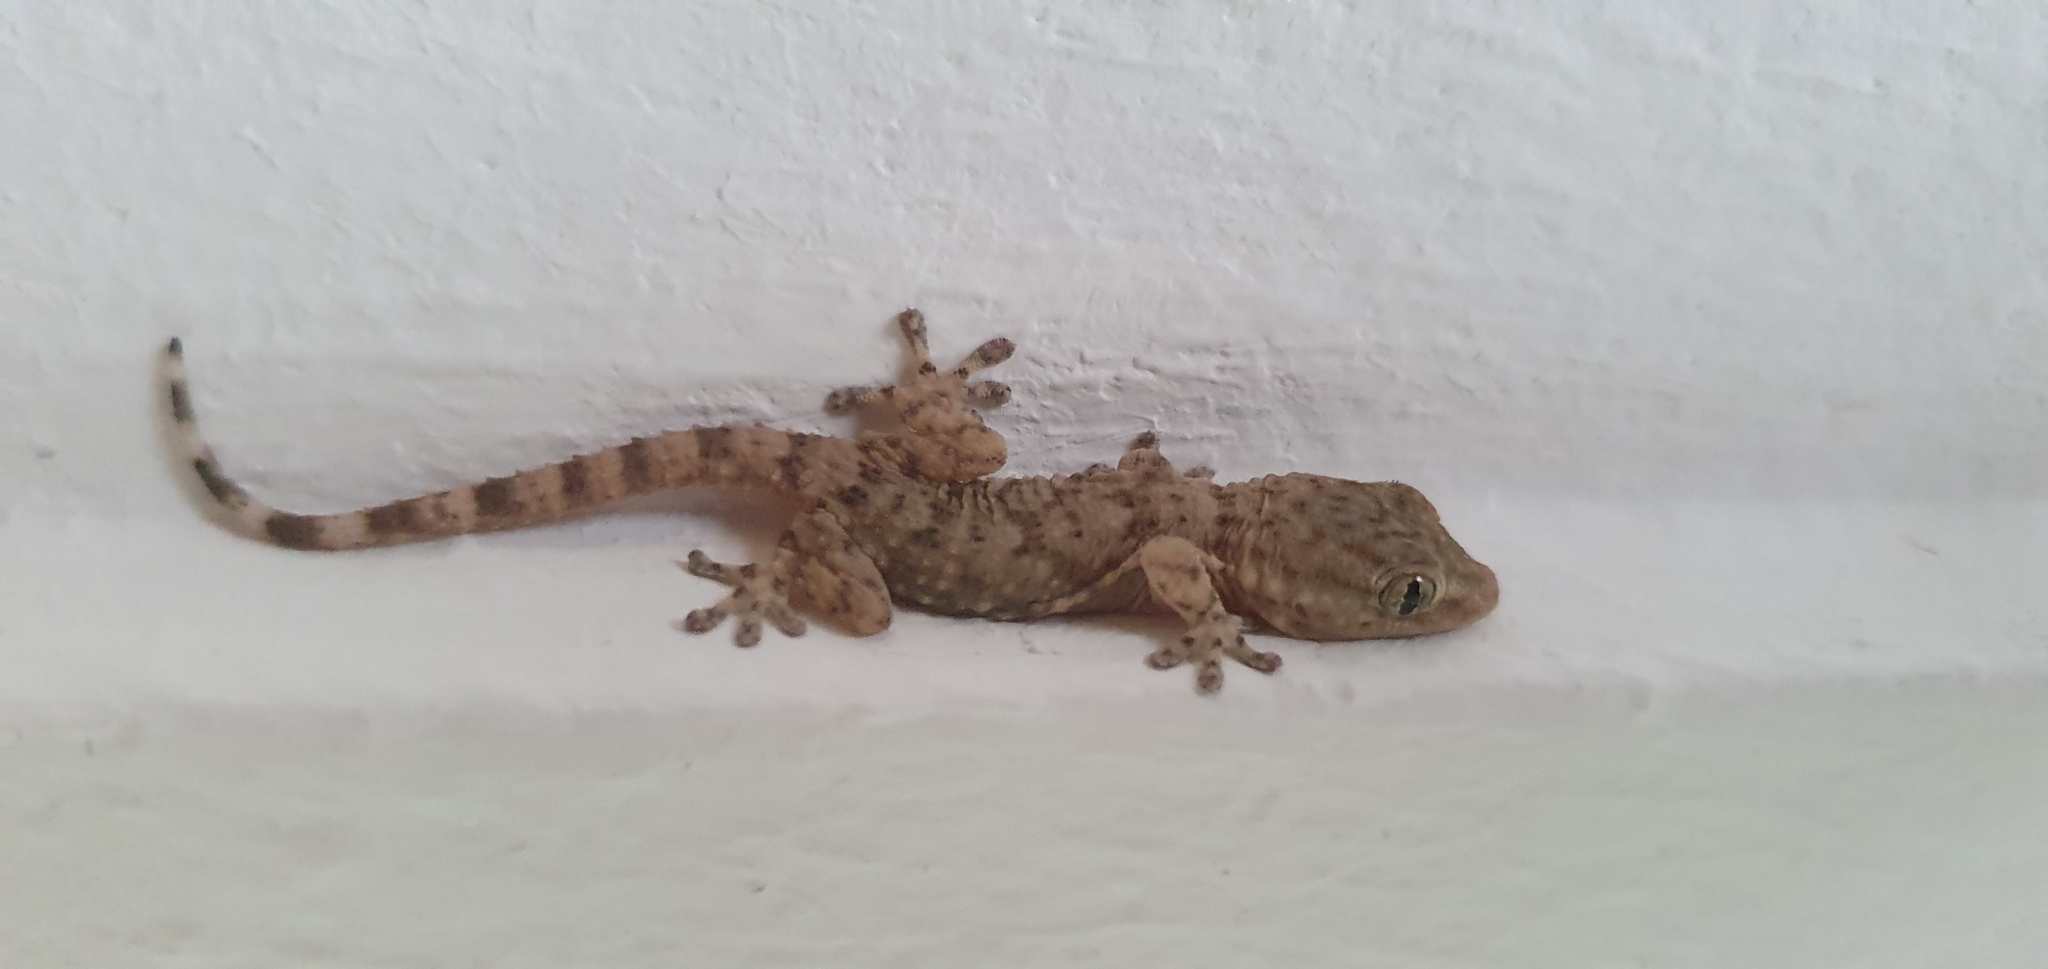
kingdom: Animalia
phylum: Chordata
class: Squamata
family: Phyllodactylidae
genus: Tarentola
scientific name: Tarentola mauritanica
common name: Moorish gecko
